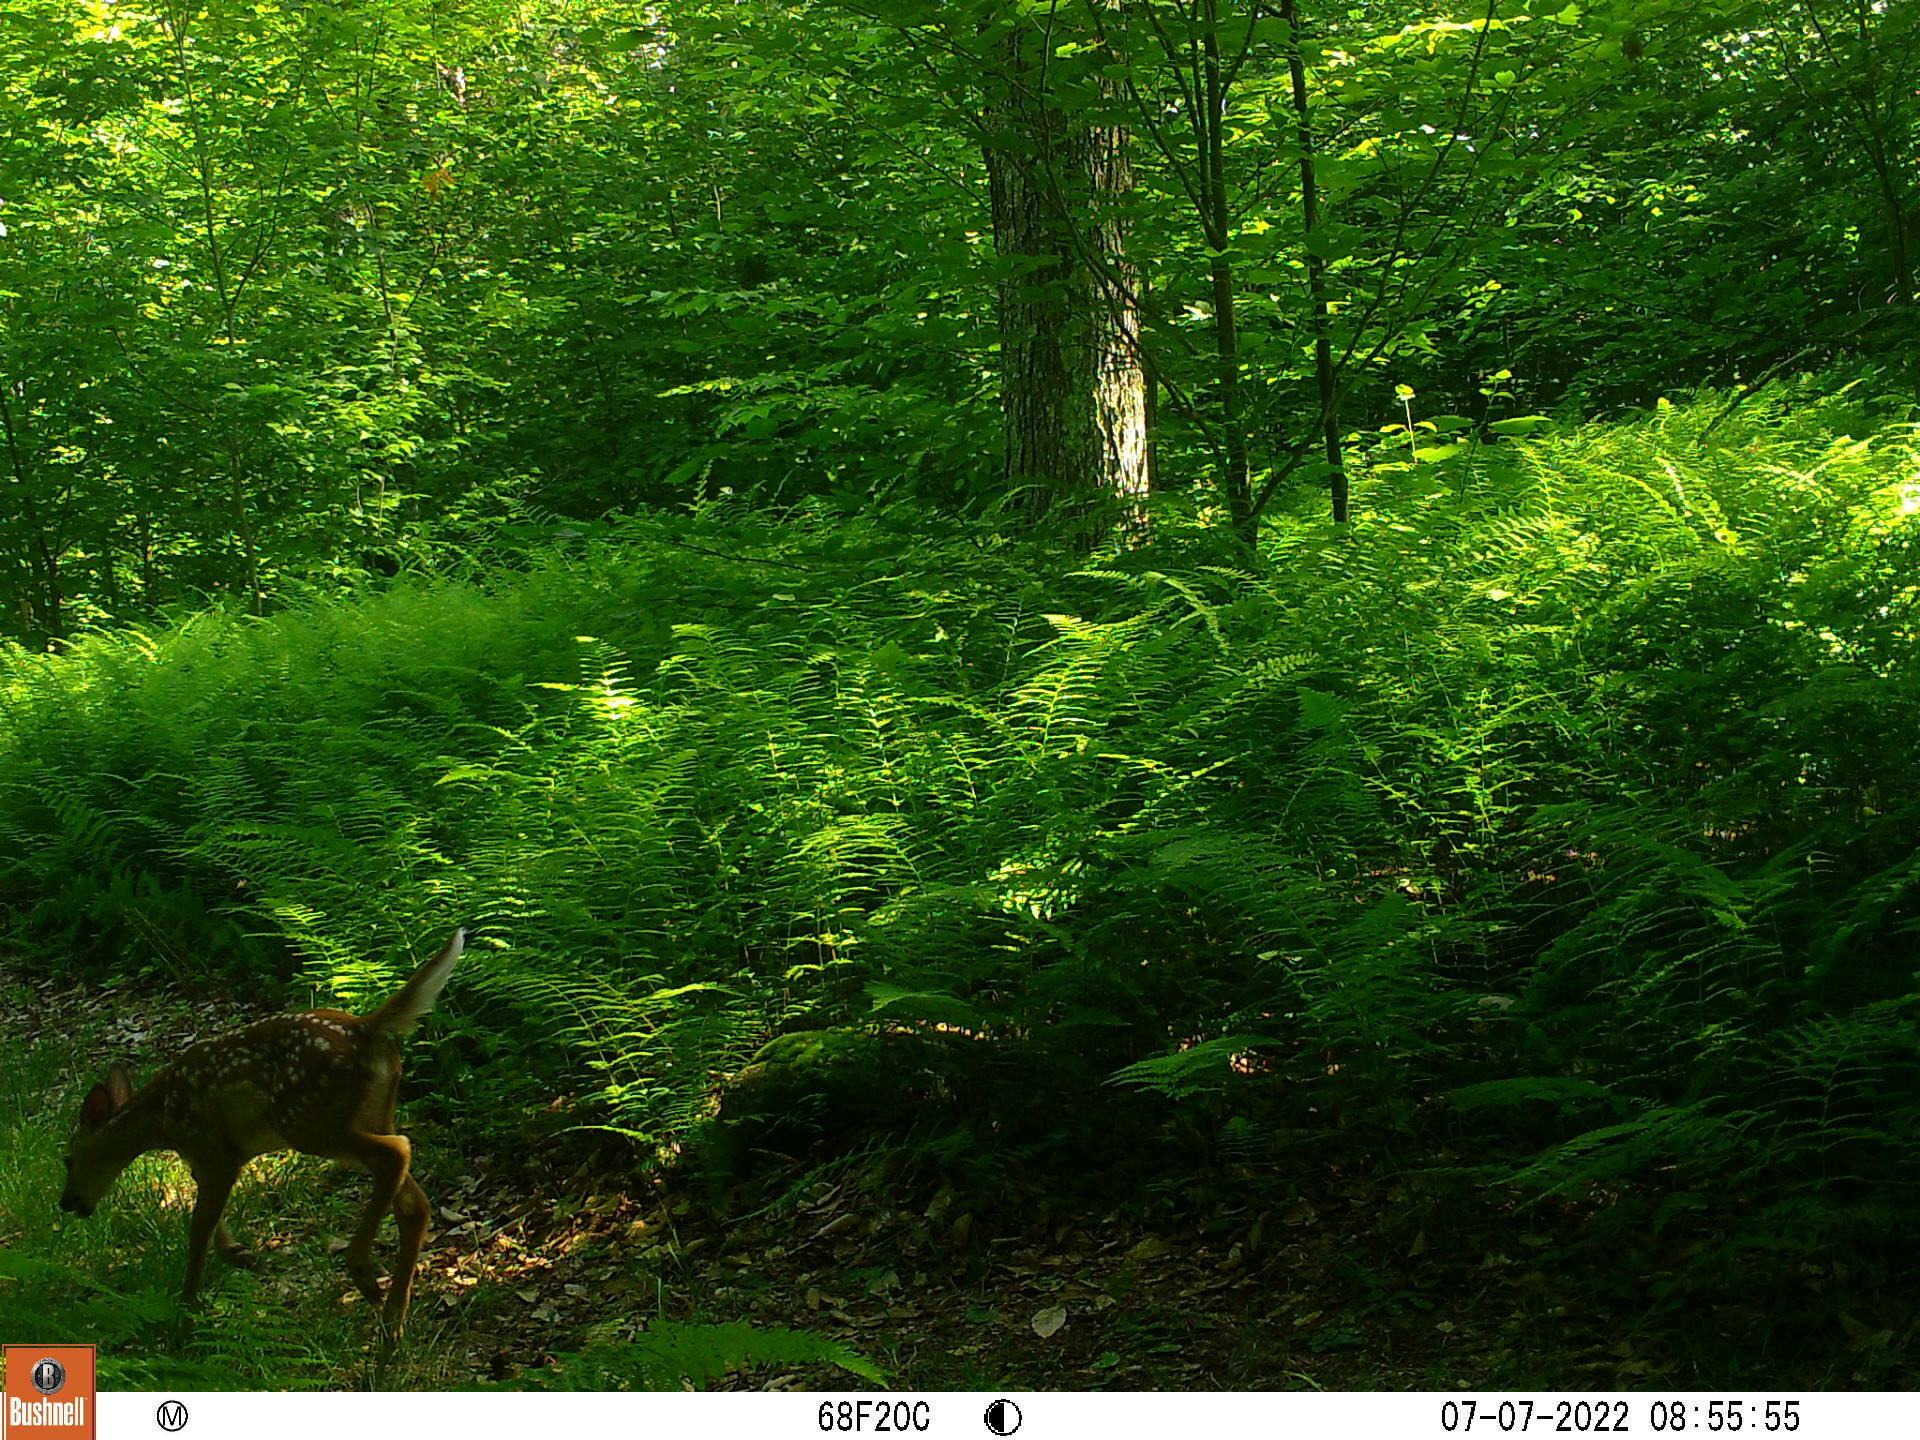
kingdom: Animalia
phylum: Chordata
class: Mammalia
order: Artiodactyla
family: Cervidae
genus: Odocoileus
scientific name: Odocoileus virginianus
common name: White-tailed deer
